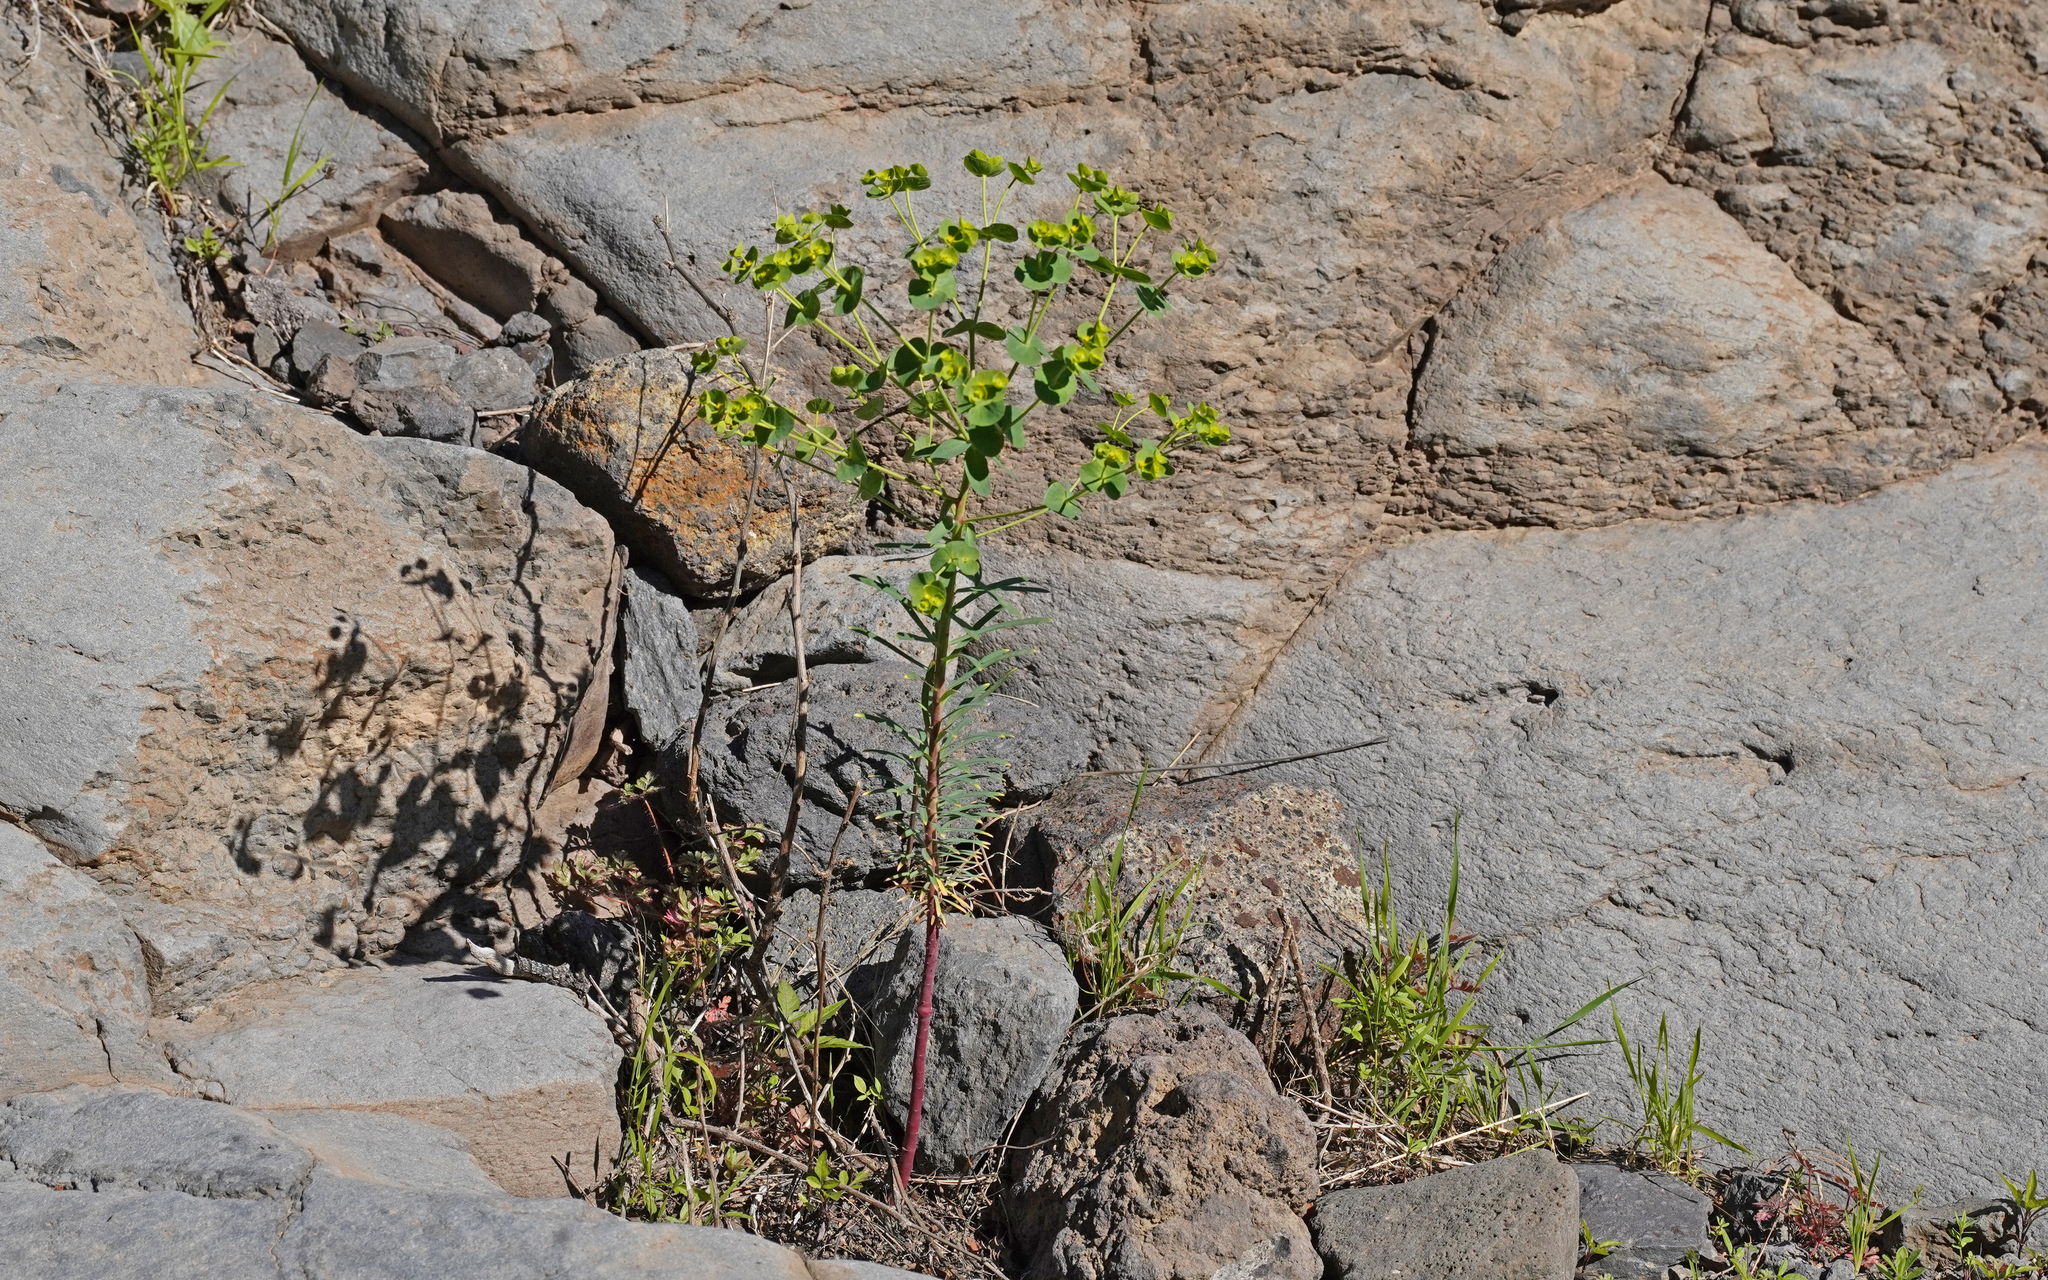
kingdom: Plantae
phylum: Tracheophyta
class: Magnoliopsida
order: Malpighiales
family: Euphorbiaceae
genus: Euphorbia
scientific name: Euphorbia segetalis
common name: Corn spurge
